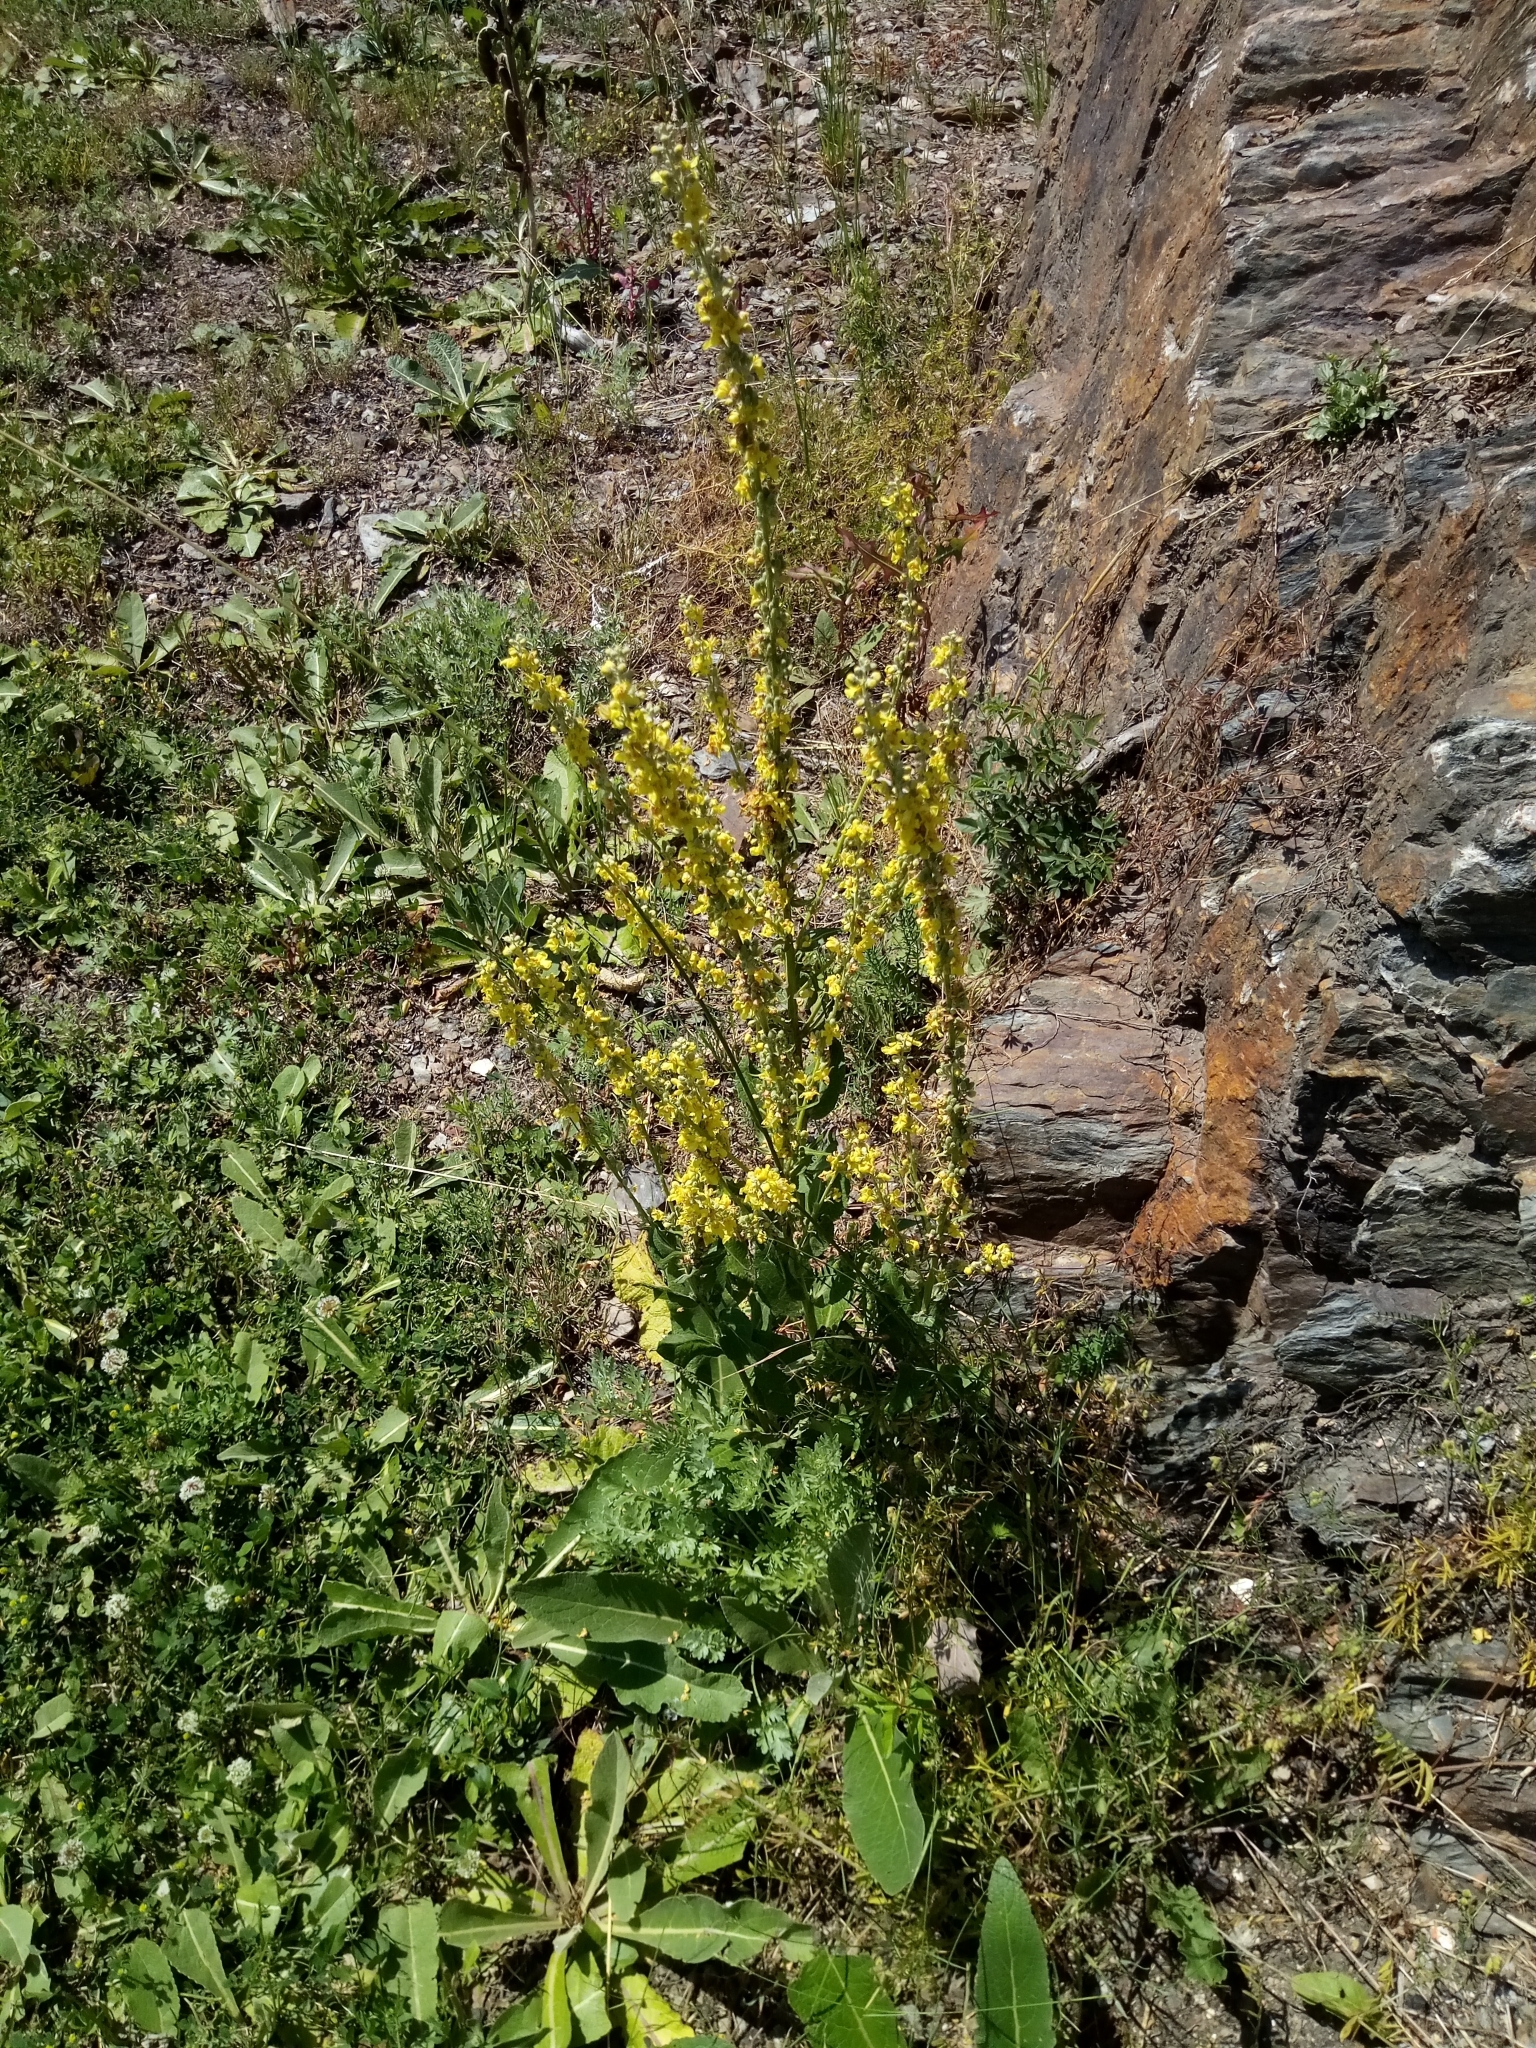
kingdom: Plantae
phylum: Tracheophyta
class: Magnoliopsida
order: Lamiales
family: Scrophulariaceae
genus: Verbascum
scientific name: Verbascum lychnitis
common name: White mullein
